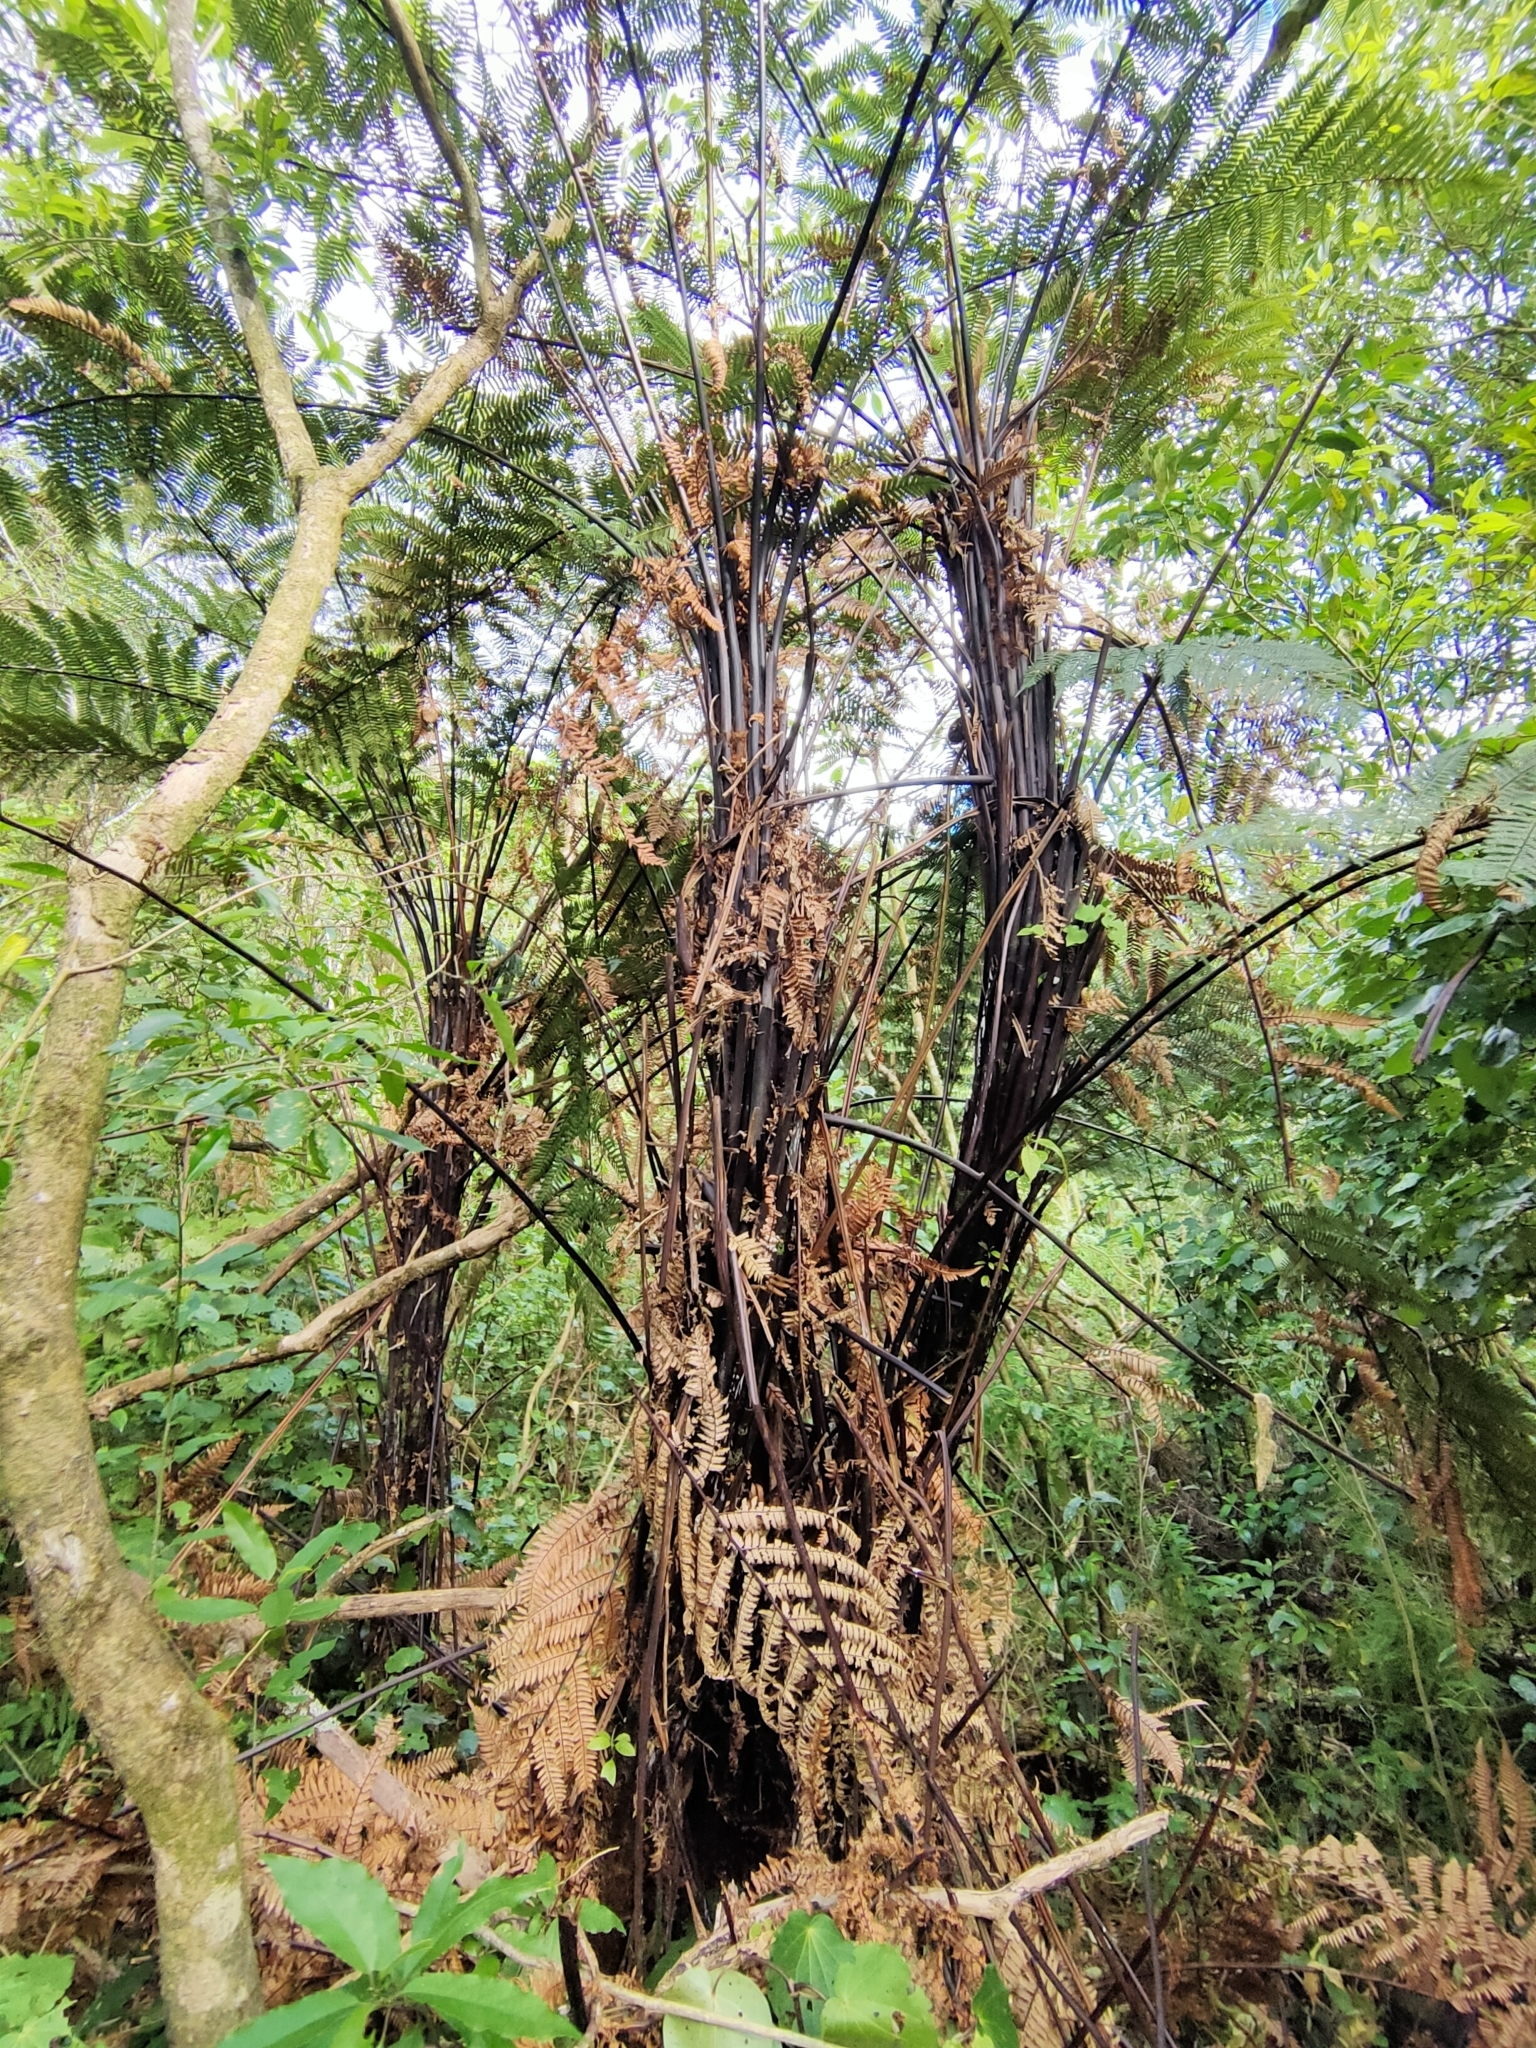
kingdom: Plantae
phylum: Tracheophyta
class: Polypodiopsida
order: Cyatheales
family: Dicksoniaceae
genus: Dicksonia
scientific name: Dicksonia squarrosa
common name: Hard treefern
